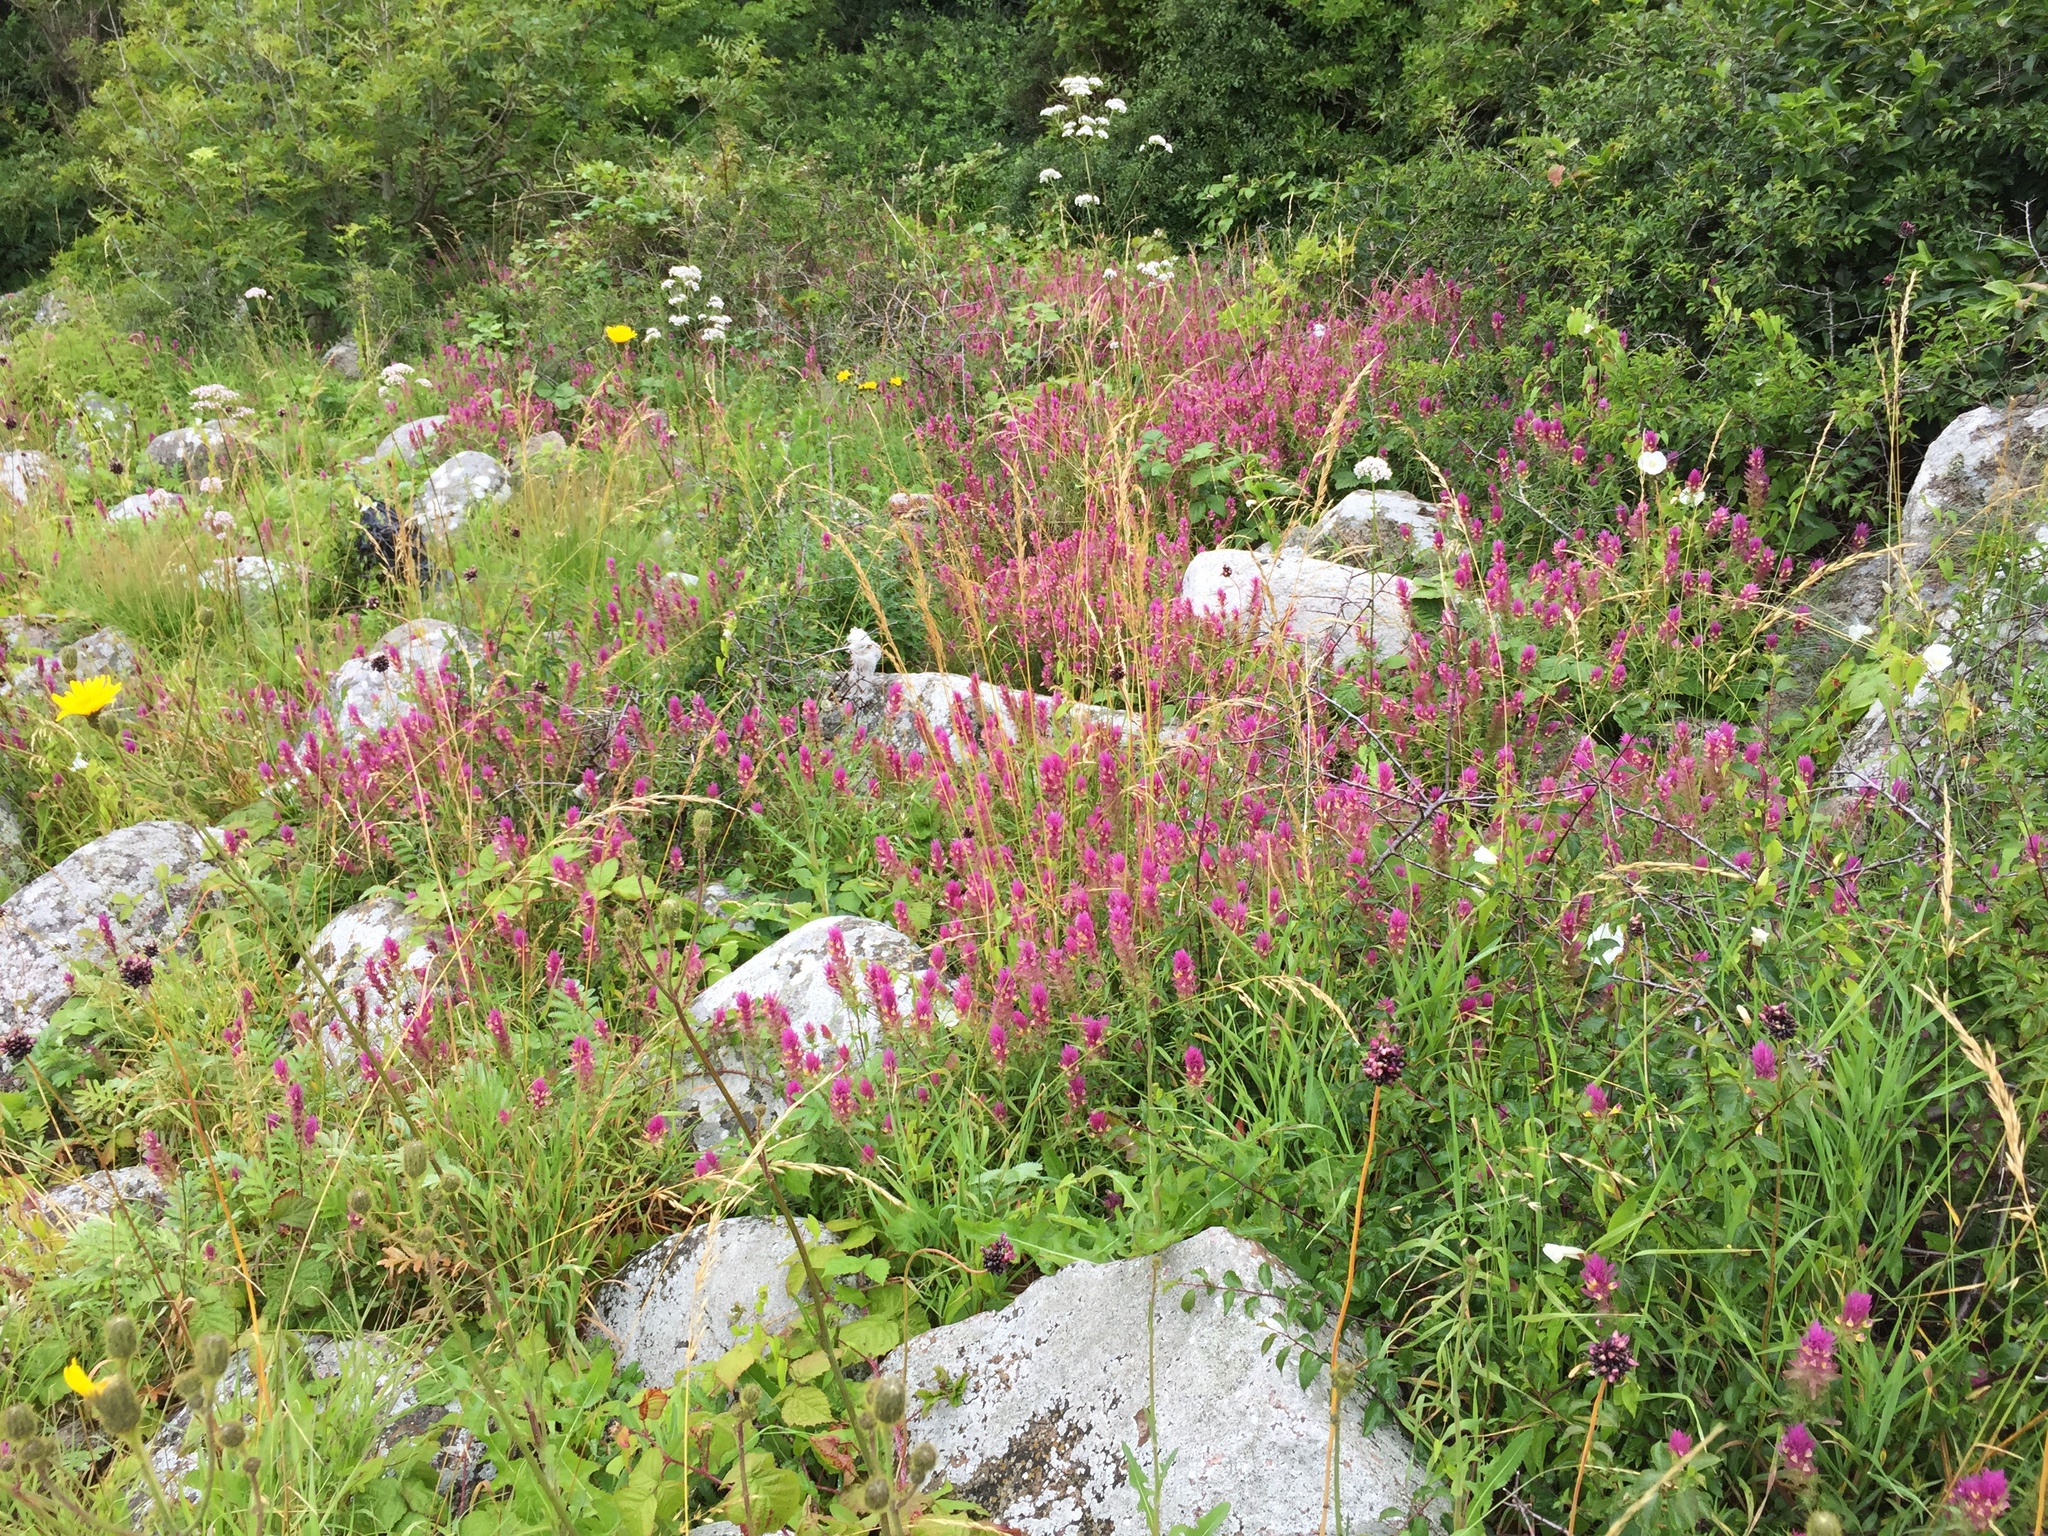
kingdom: Plantae
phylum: Tracheophyta
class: Magnoliopsida
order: Lamiales
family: Orobanchaceae
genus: Melampyrum
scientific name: Melampyrum arvense
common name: Field cow-wheat
